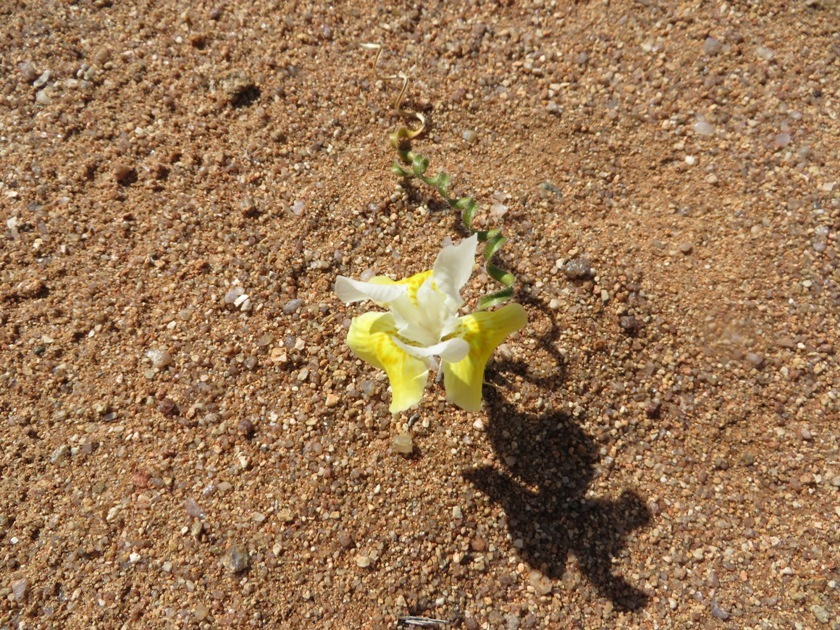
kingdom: Plantae
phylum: Tracheophyta
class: Liliopsida
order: Asparagales
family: Iridaceae
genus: Moraea
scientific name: Moraea serpentina
